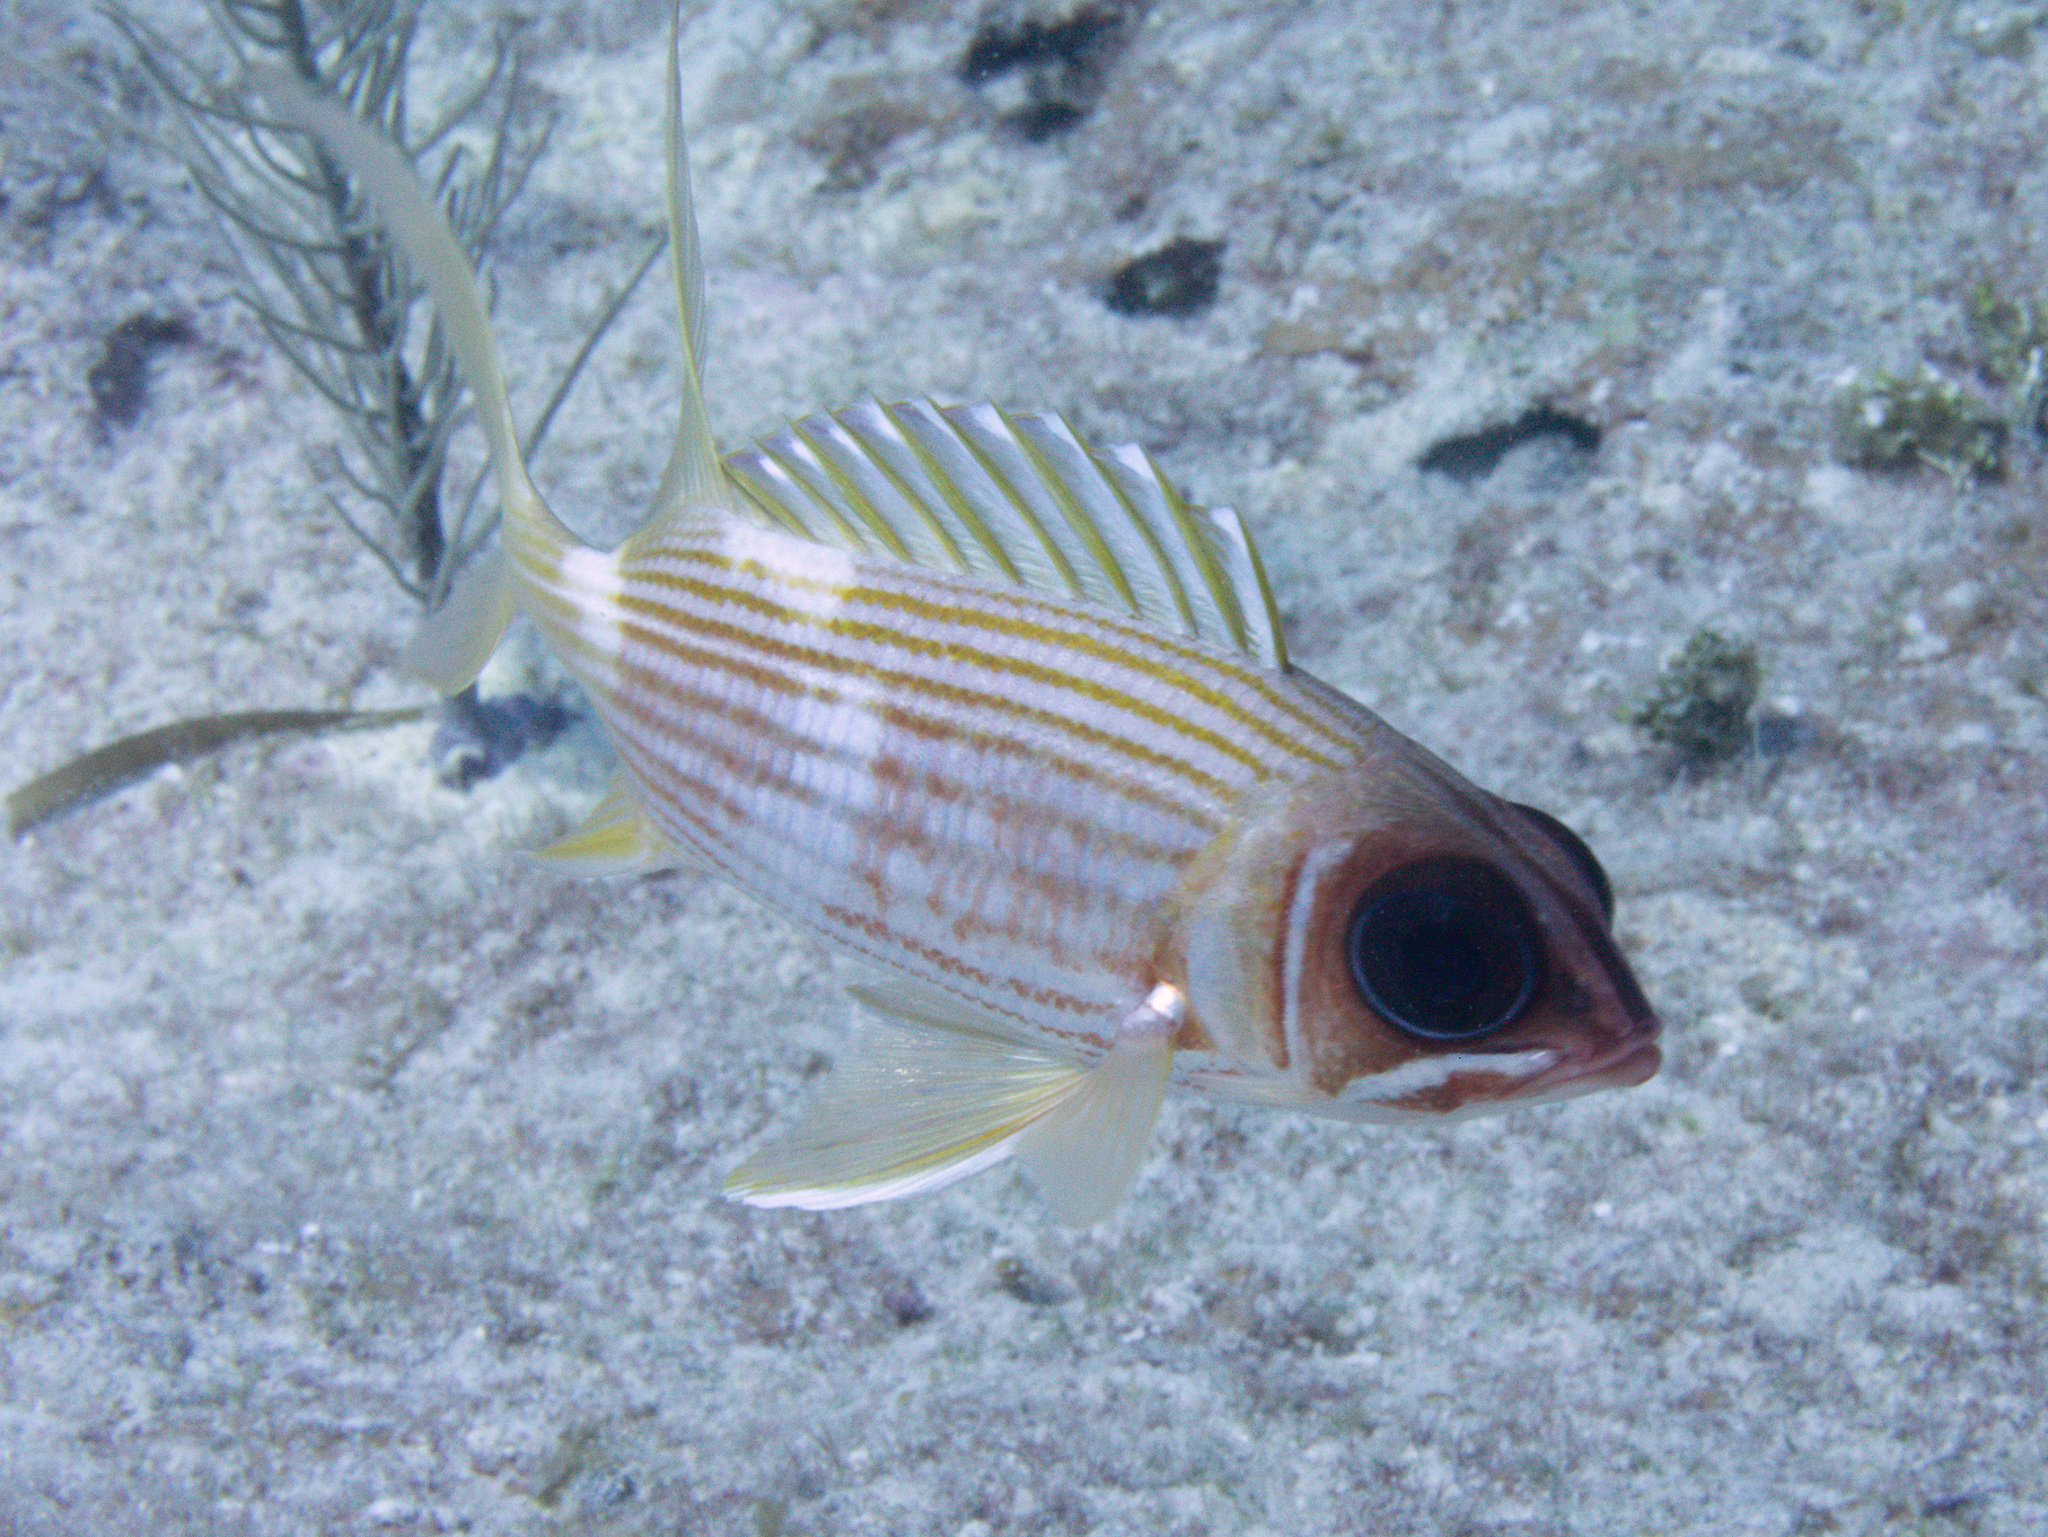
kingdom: Animalia
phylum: Chordata
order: Beryciformes
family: Holocentridae
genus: Holocentrus
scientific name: Holocentrus rufus
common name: Longspine squirrelfish
